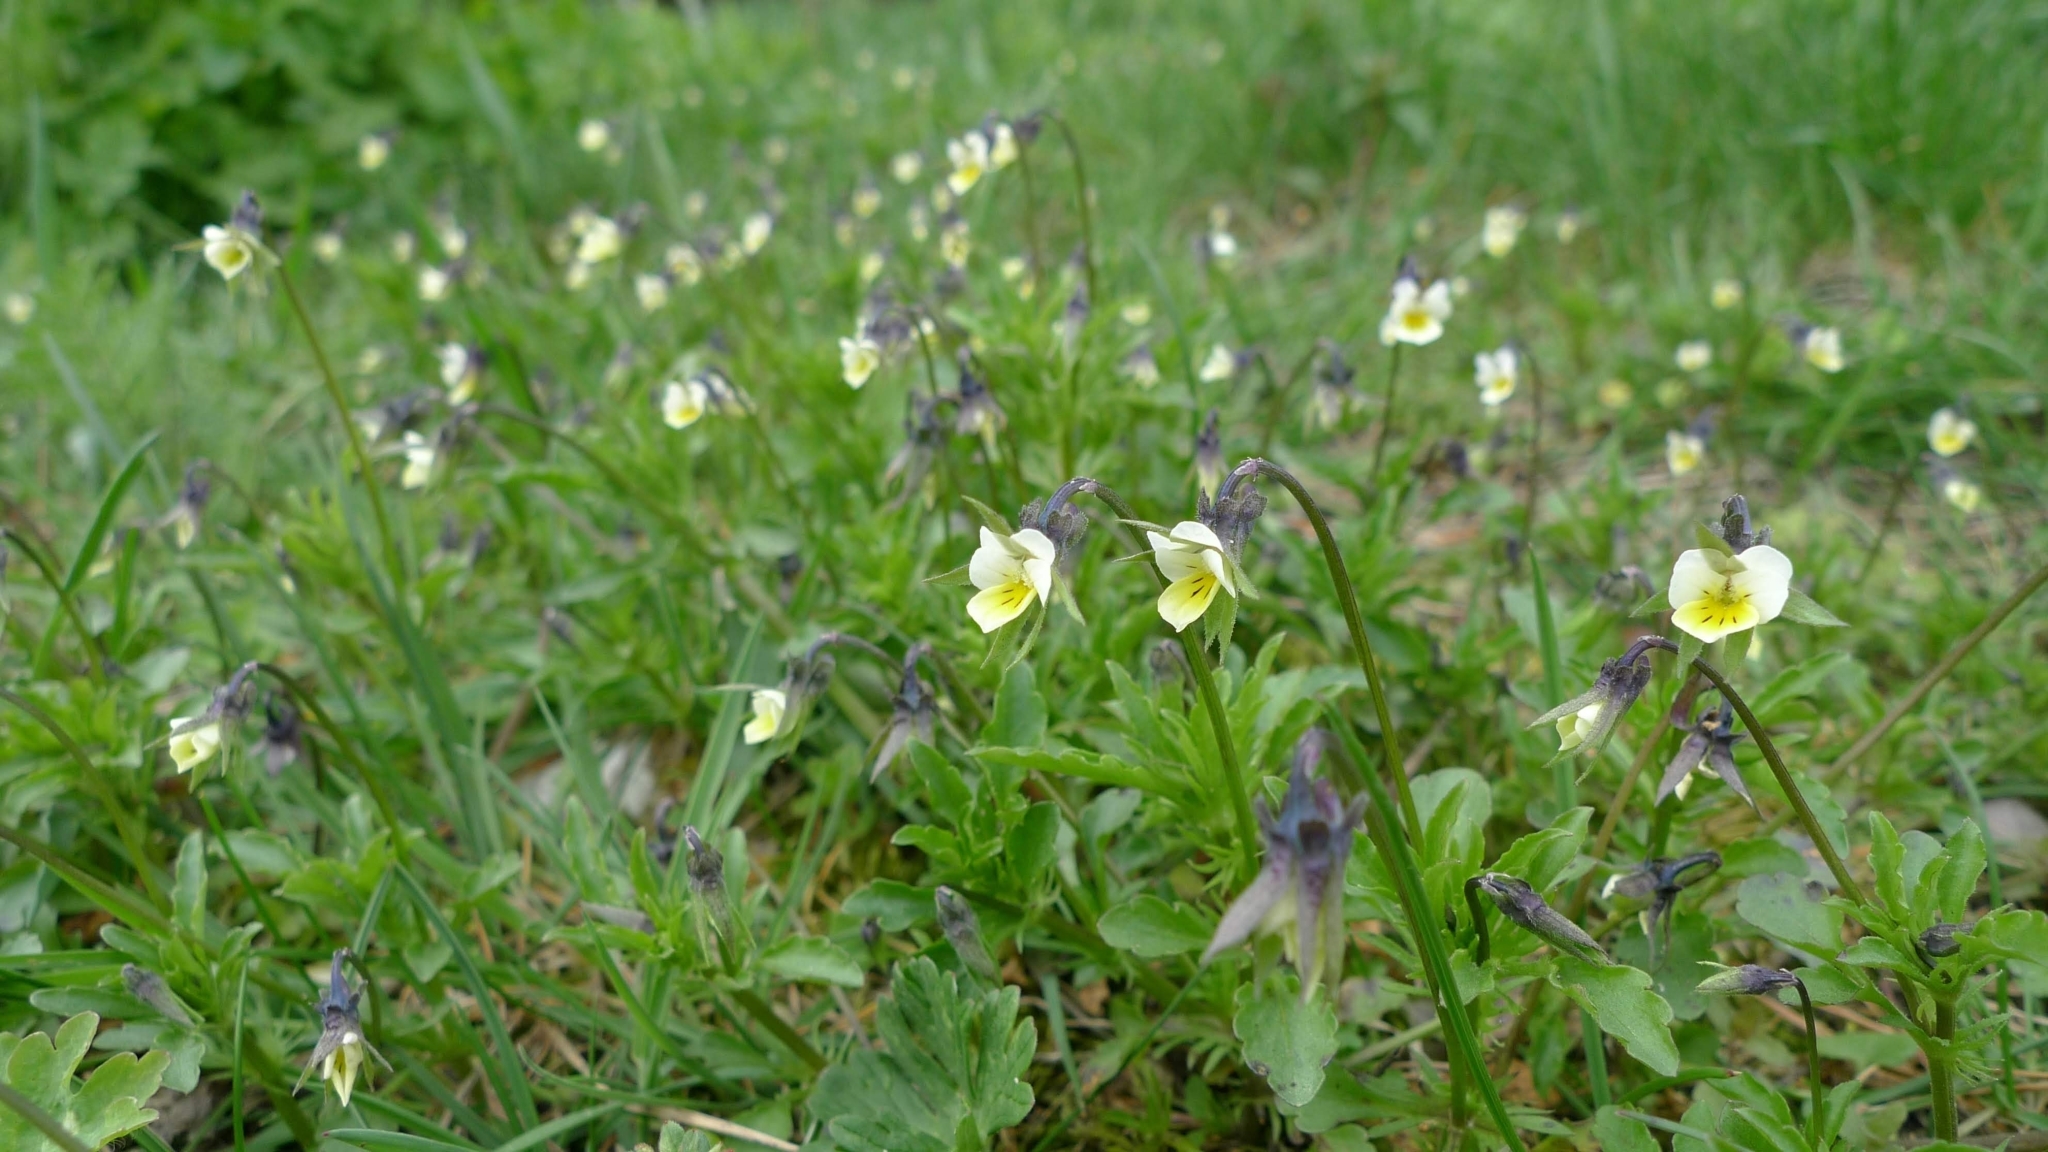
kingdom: Plantae
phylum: Tracheophyta
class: Magnoliopsida
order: Malpighiales
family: Violaceae
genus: Viola
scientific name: Viola arvensis
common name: Field pansy
